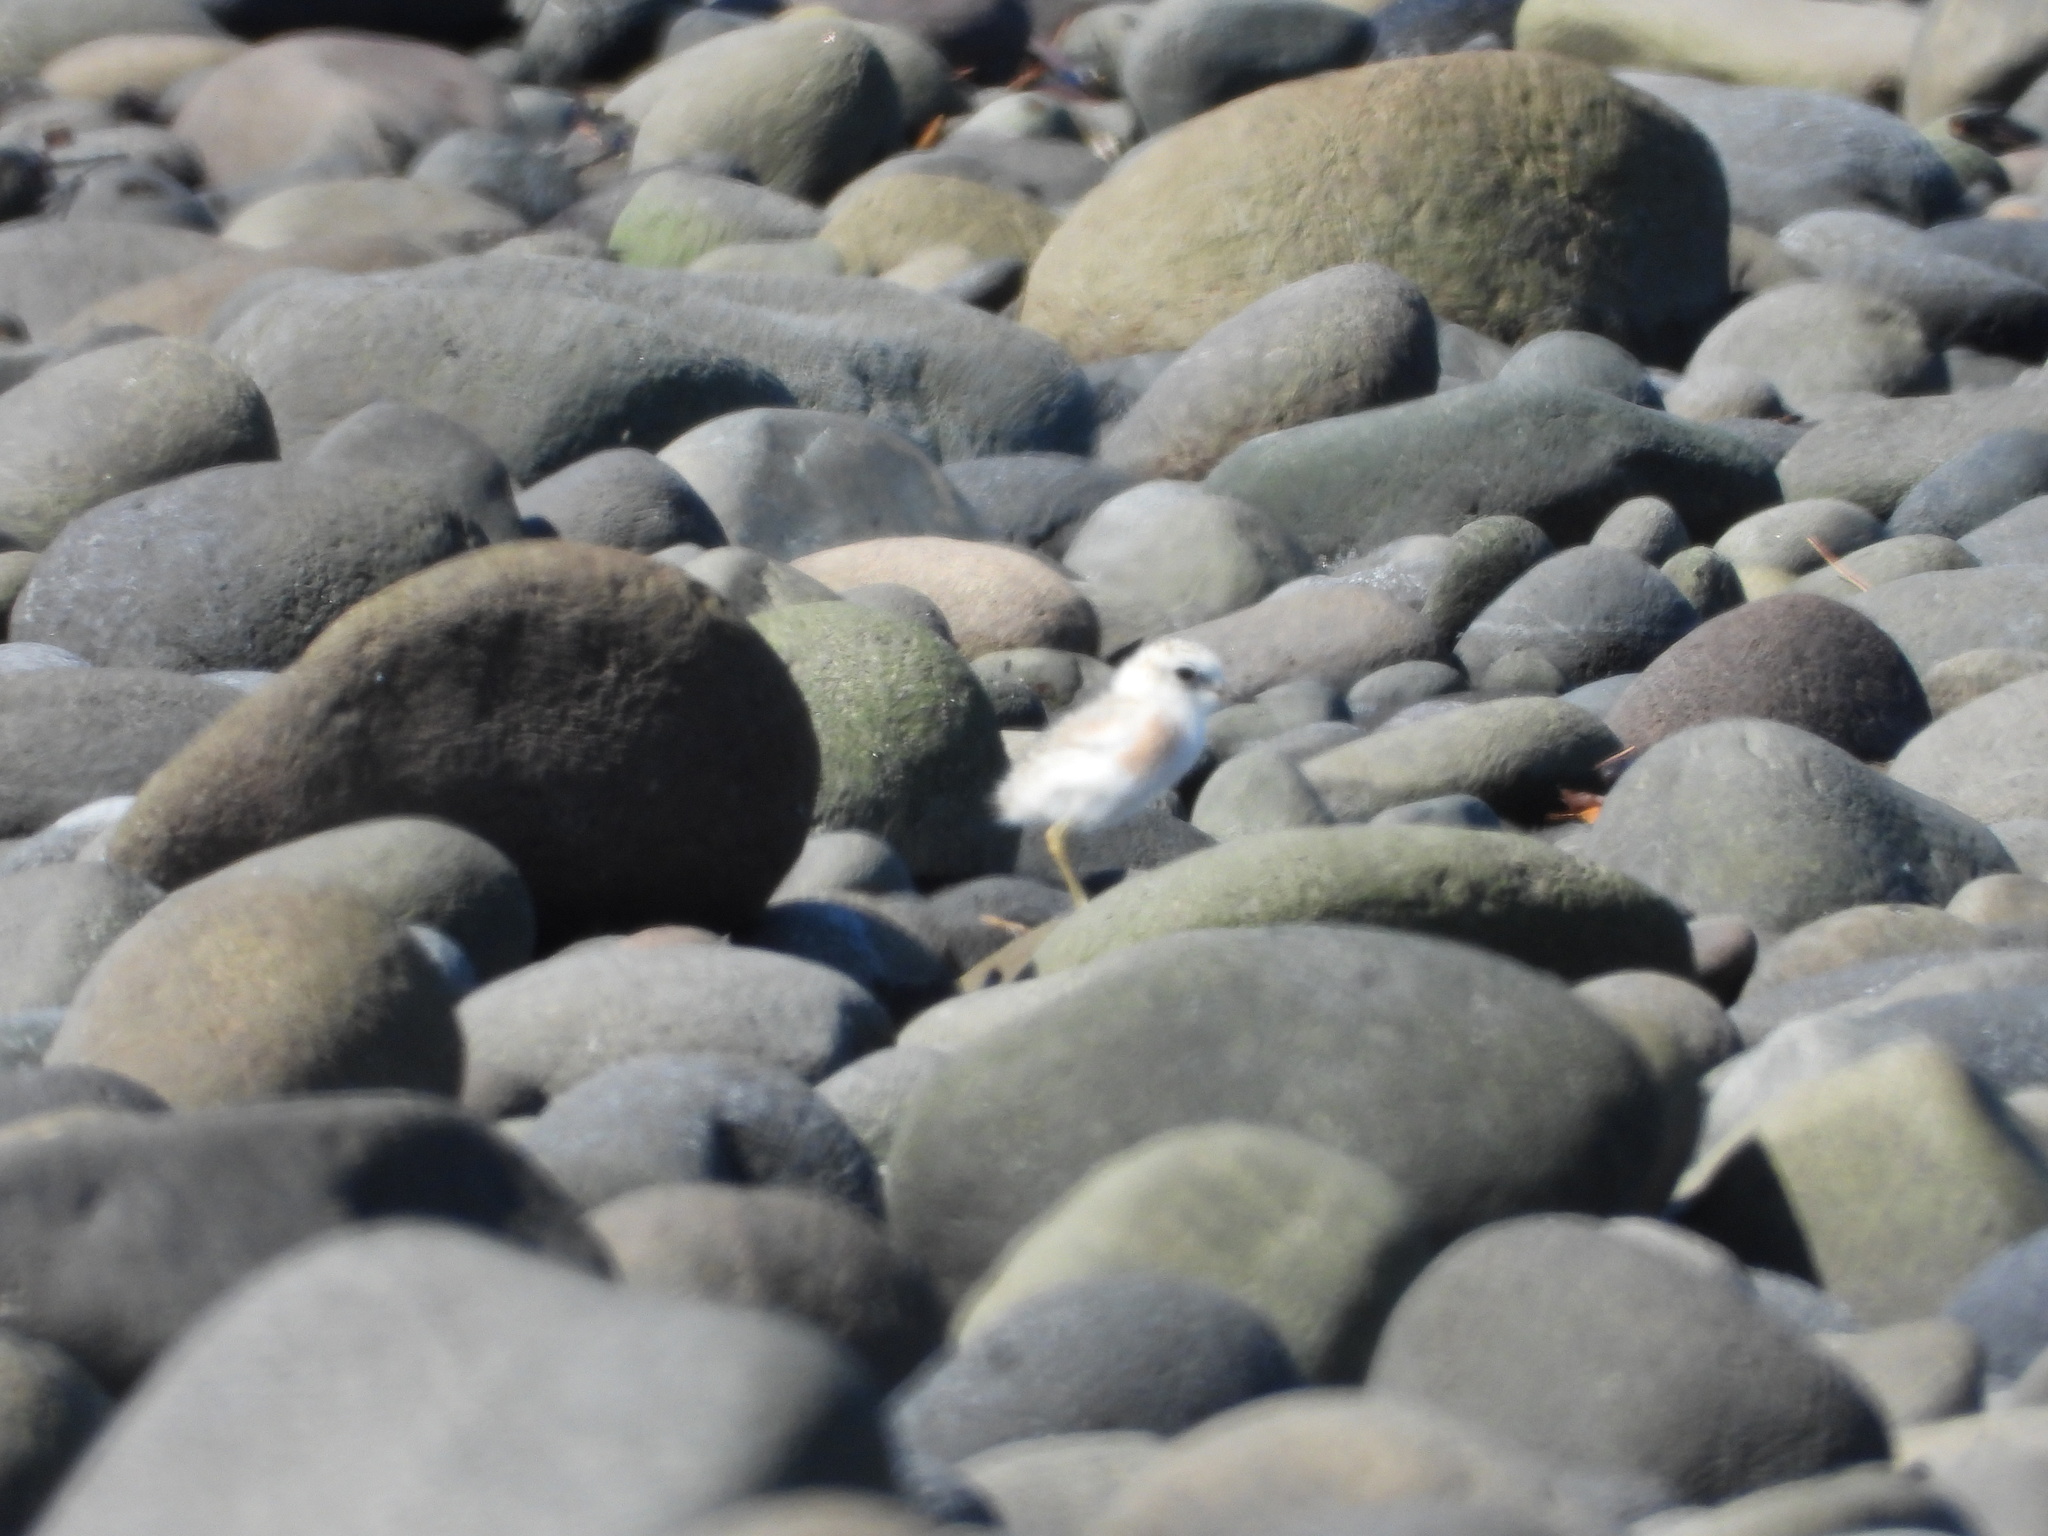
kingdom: Animalia
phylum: Chordata
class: Aves
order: Charadriiformes
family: Charadriidae
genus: Anarhynchus
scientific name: Anarhynchus
